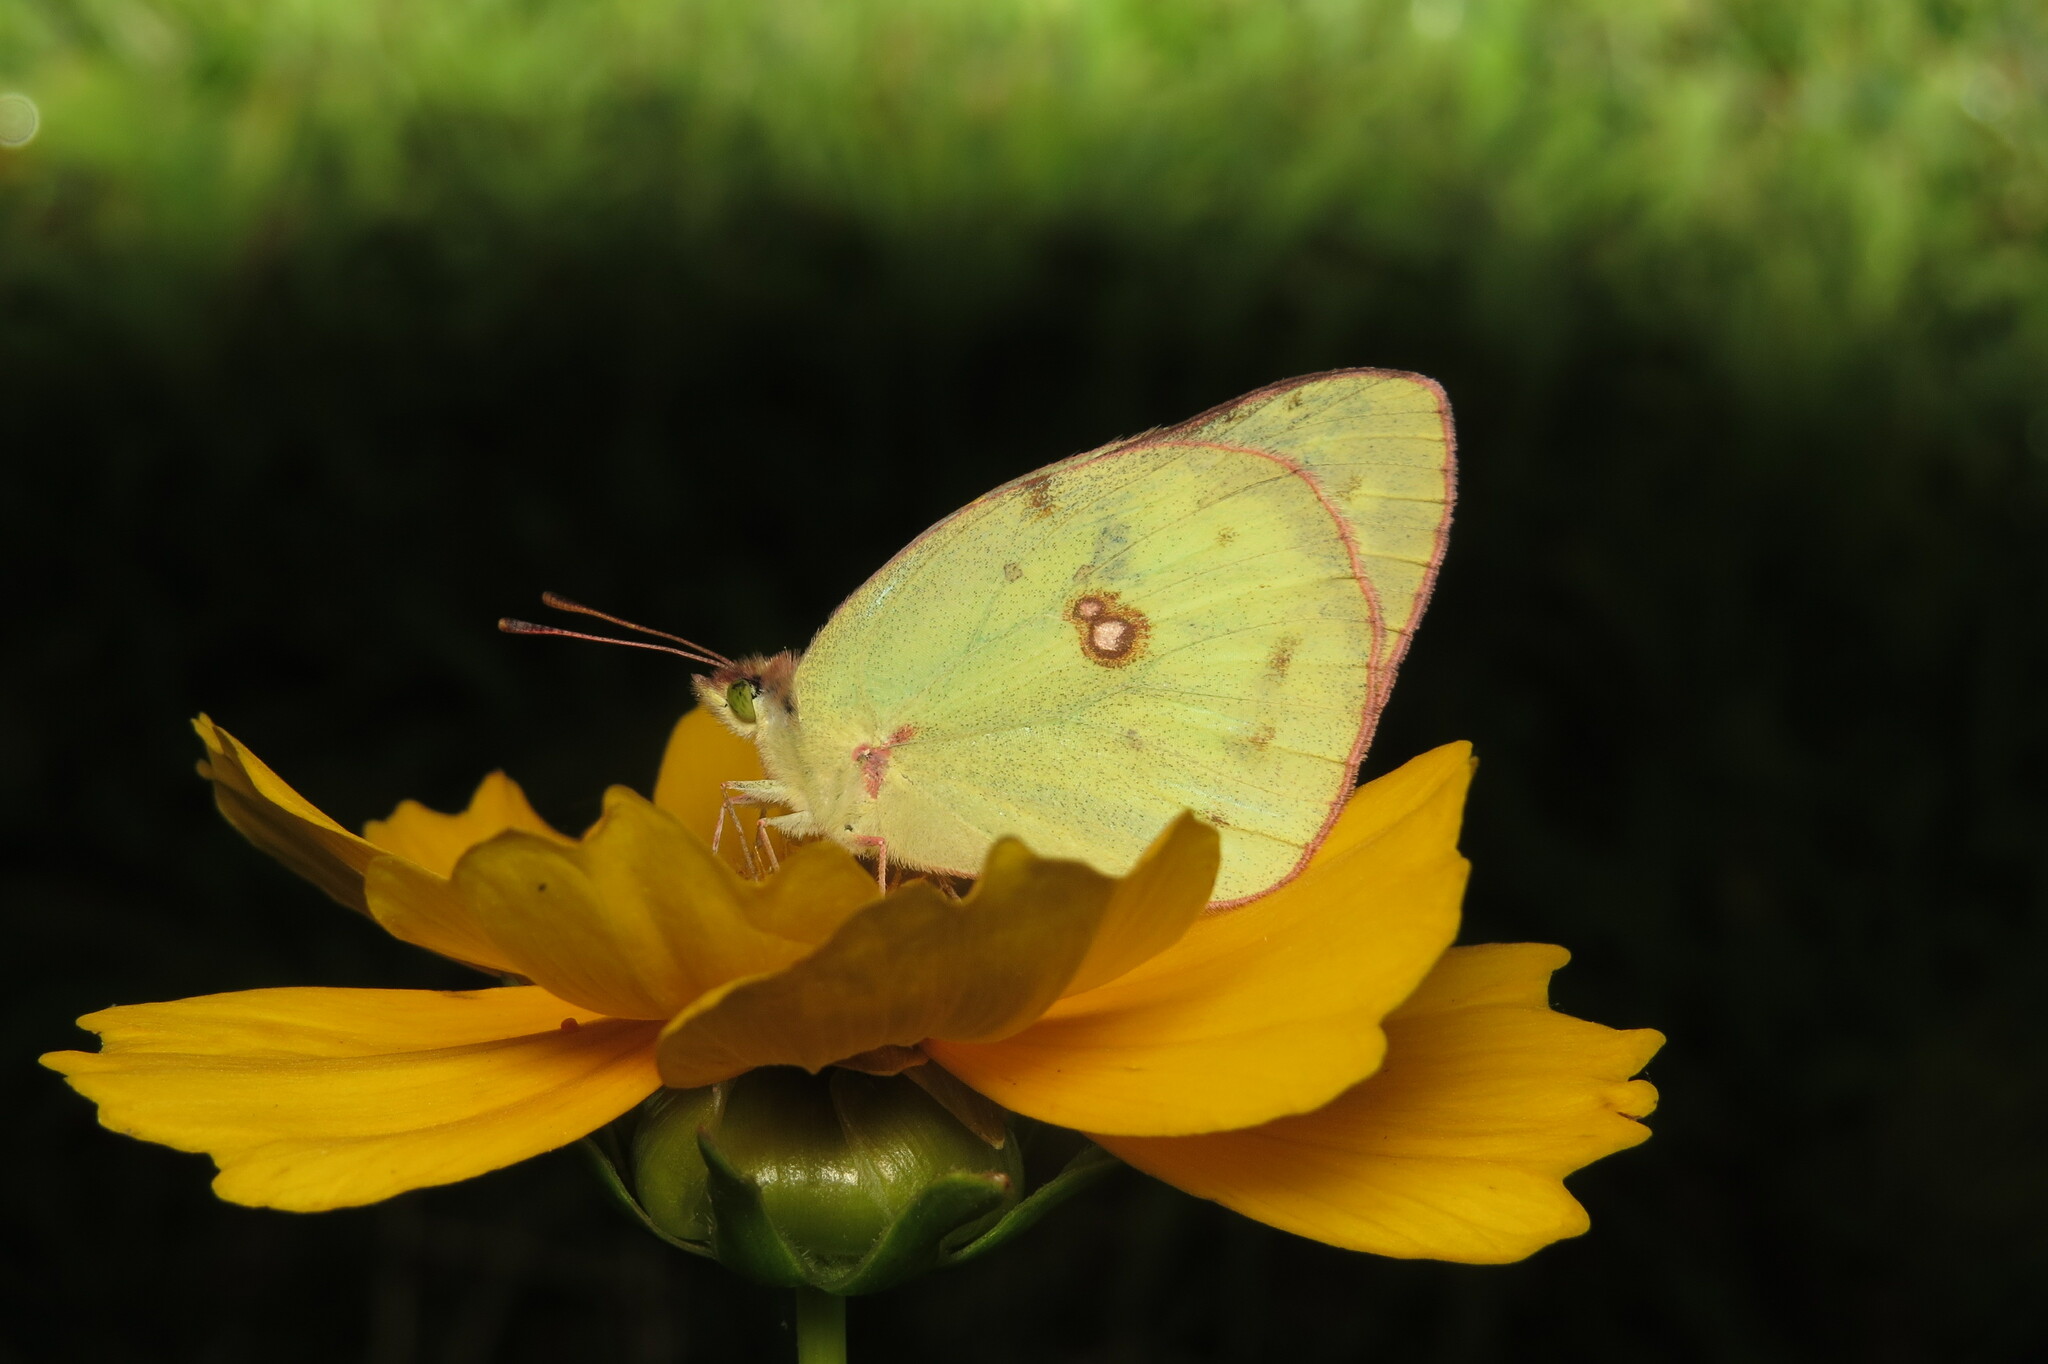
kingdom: Animalia
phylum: Arthropoda
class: Insecta
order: Lepidoptera
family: Pieridae
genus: Colias
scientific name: Colias philodice
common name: Clouded sulphur
